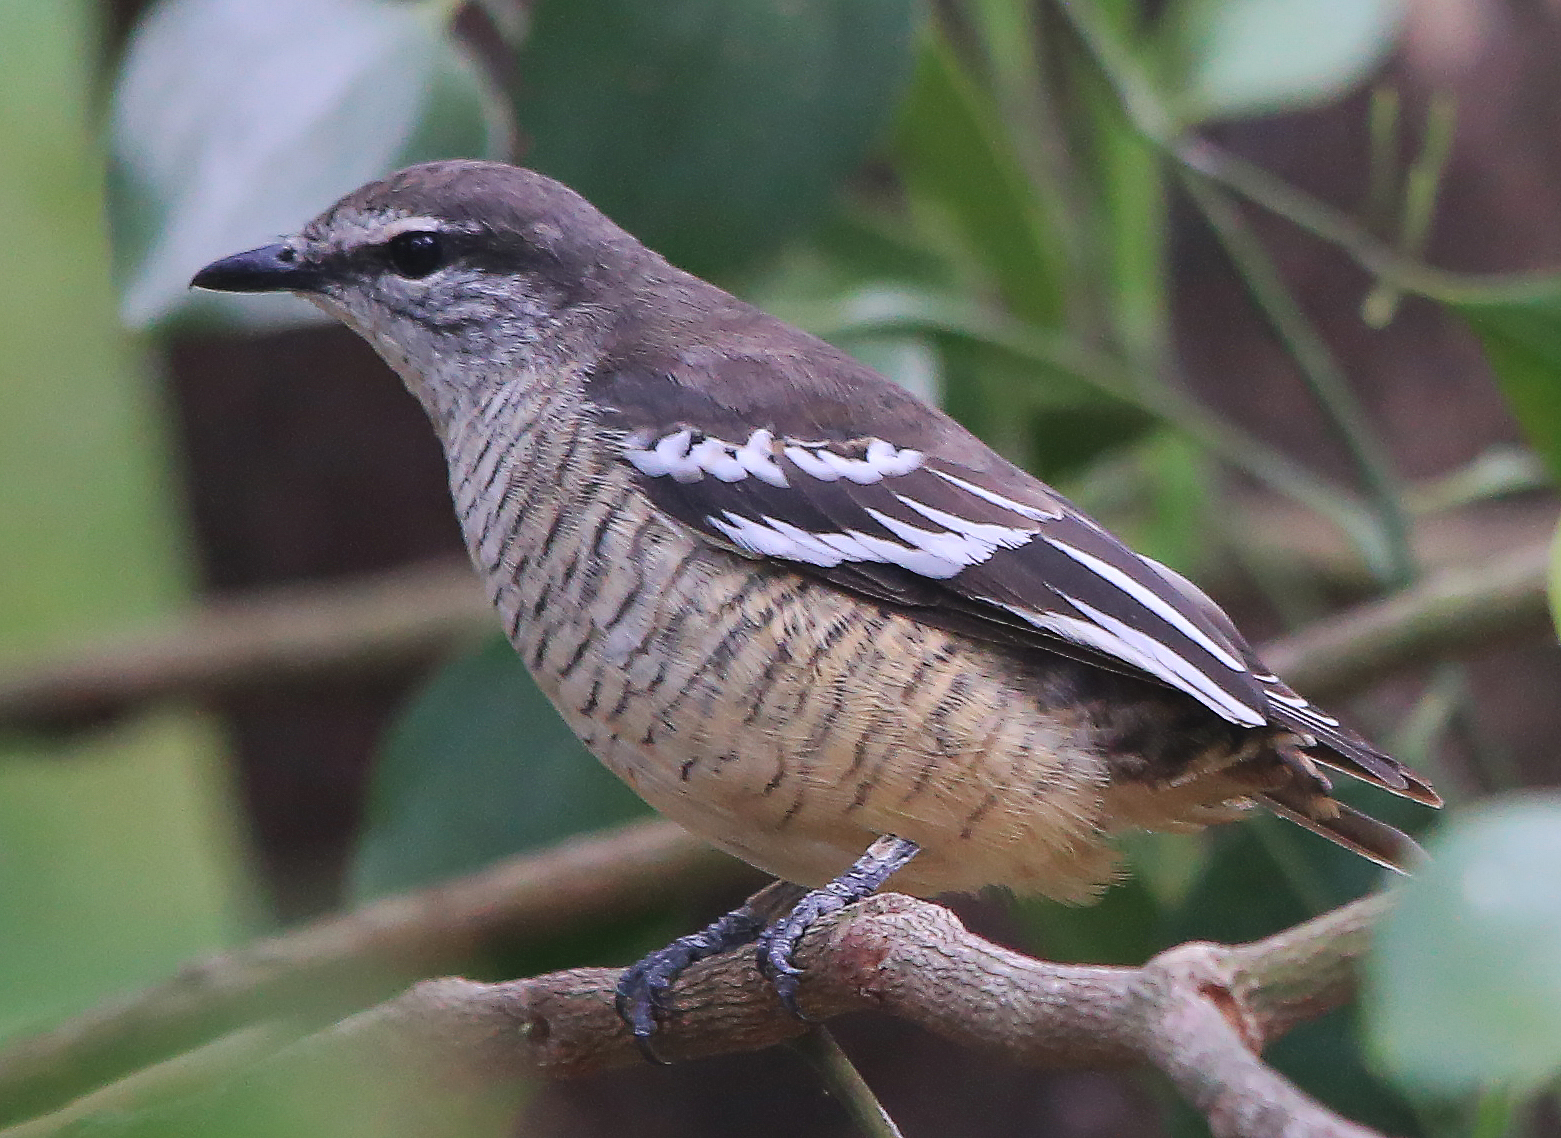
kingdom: Animalia
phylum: Chordata
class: Aves
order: Passeriformes
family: Campephagidae
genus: Lalage
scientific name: Lalage leucomela
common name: Varied triller
